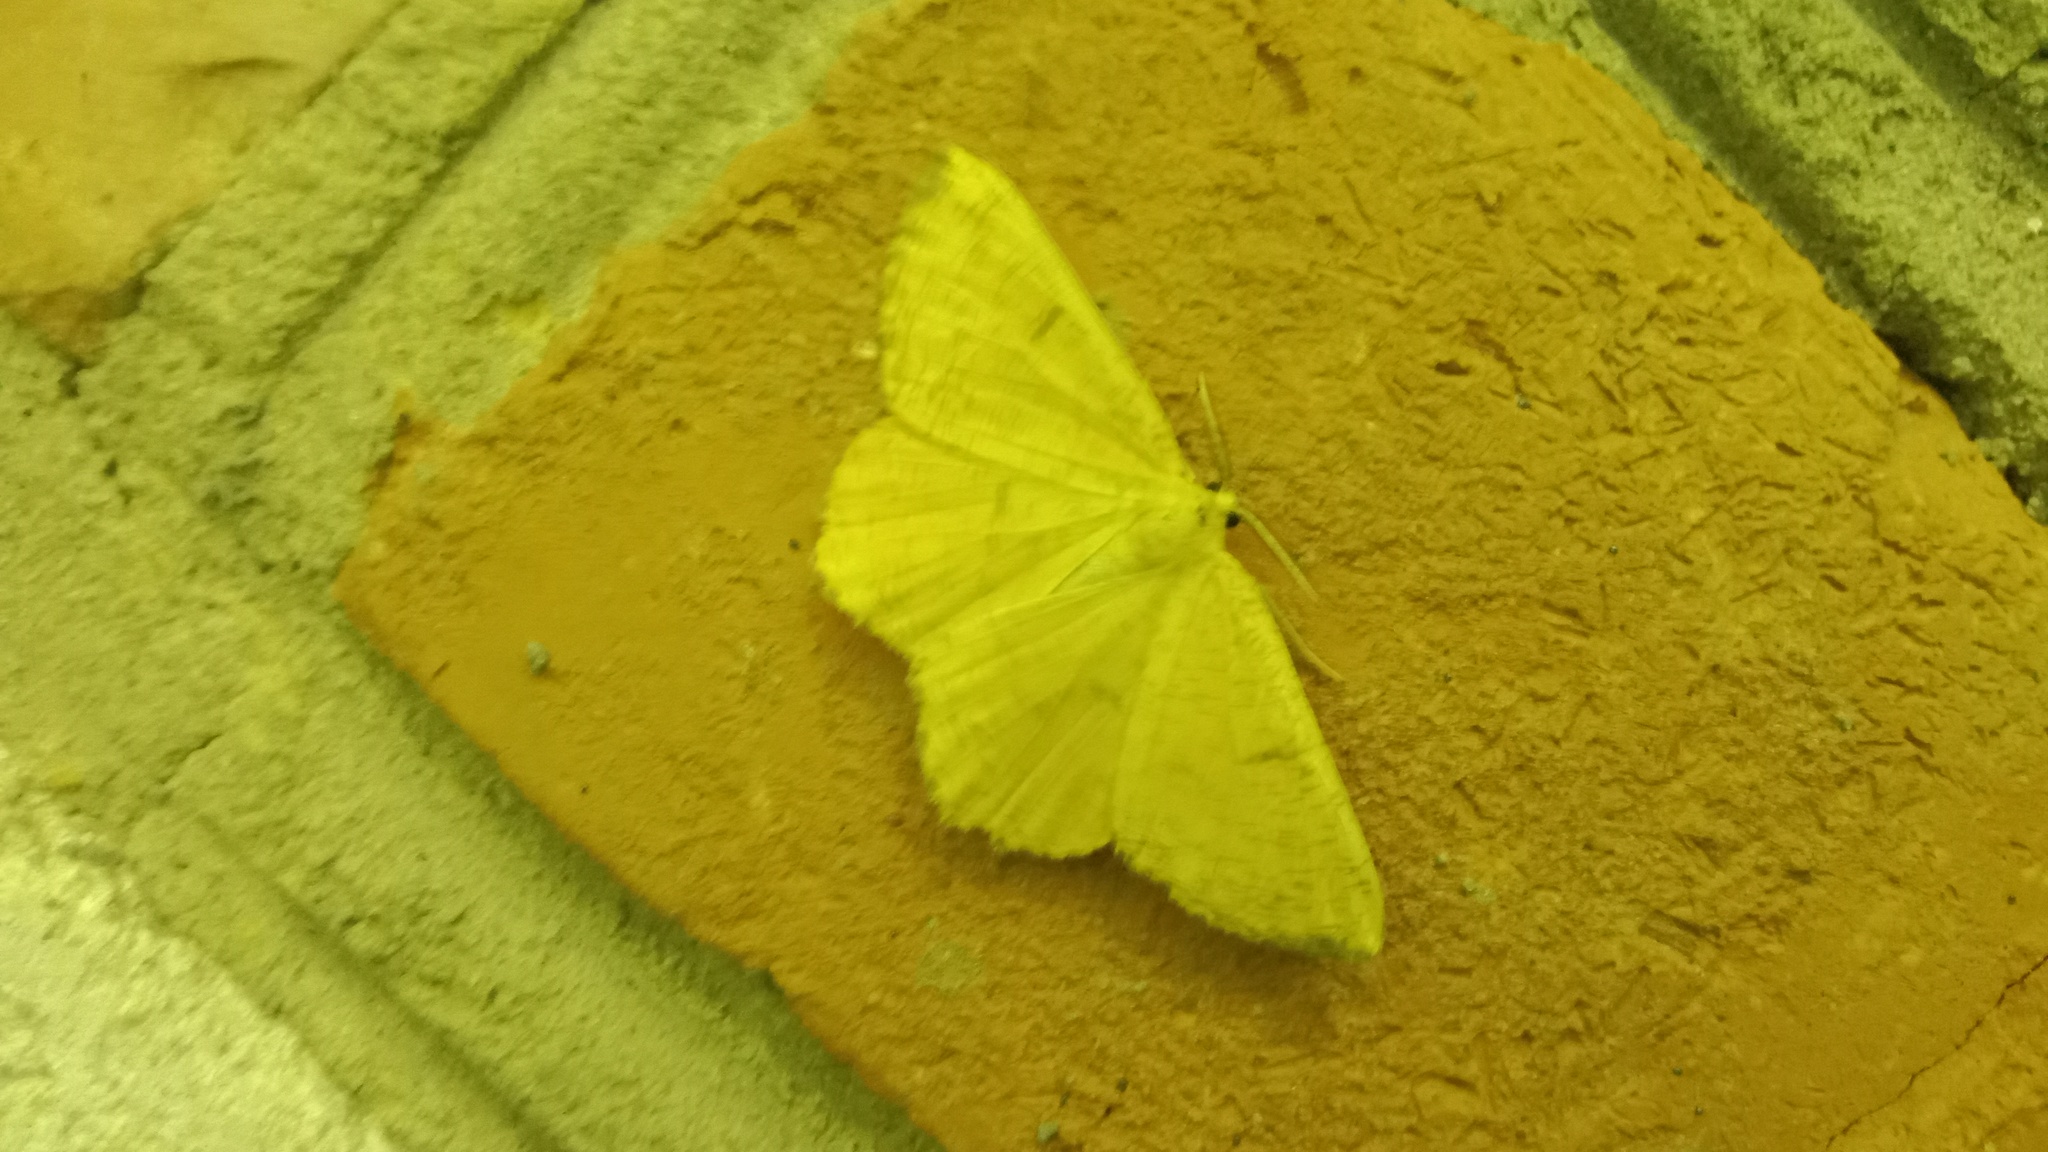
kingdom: Animalia
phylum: Arthropoda
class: Insecta
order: Lepidoptera
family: Geometridae
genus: Angerona
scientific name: Angerona prunaria
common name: Orange moth
